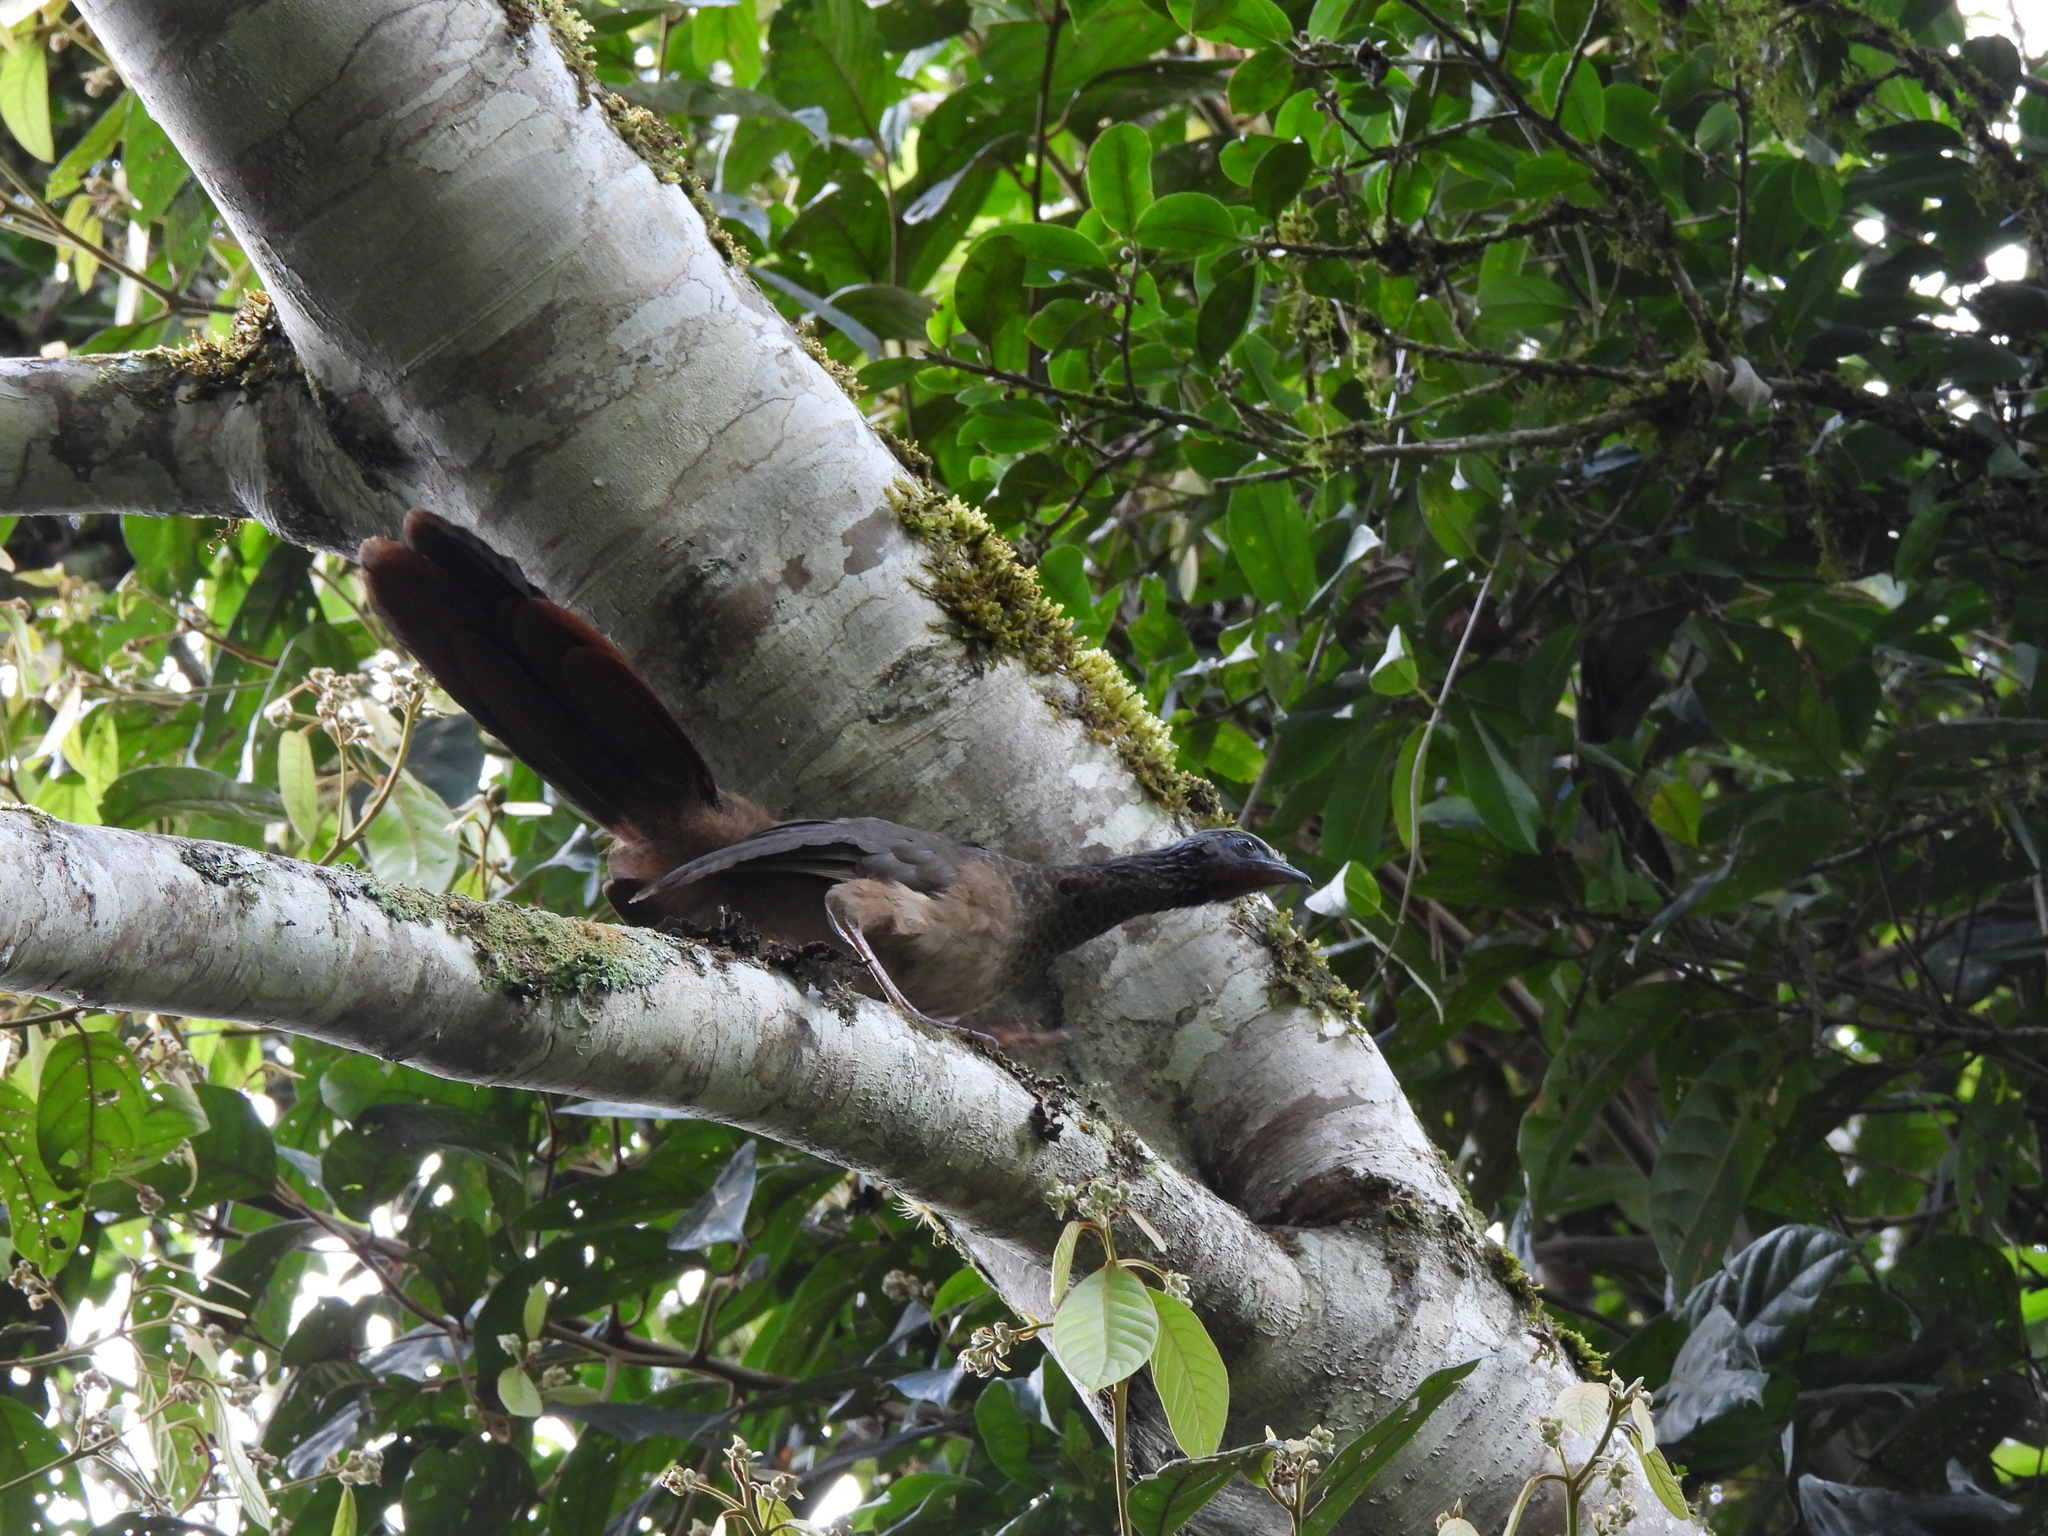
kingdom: Animalia
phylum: Chordata
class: Aves
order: Galliformes
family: Cracidae
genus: Ortalis
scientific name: Ortalis columbiana
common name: Colombian chachalaca
